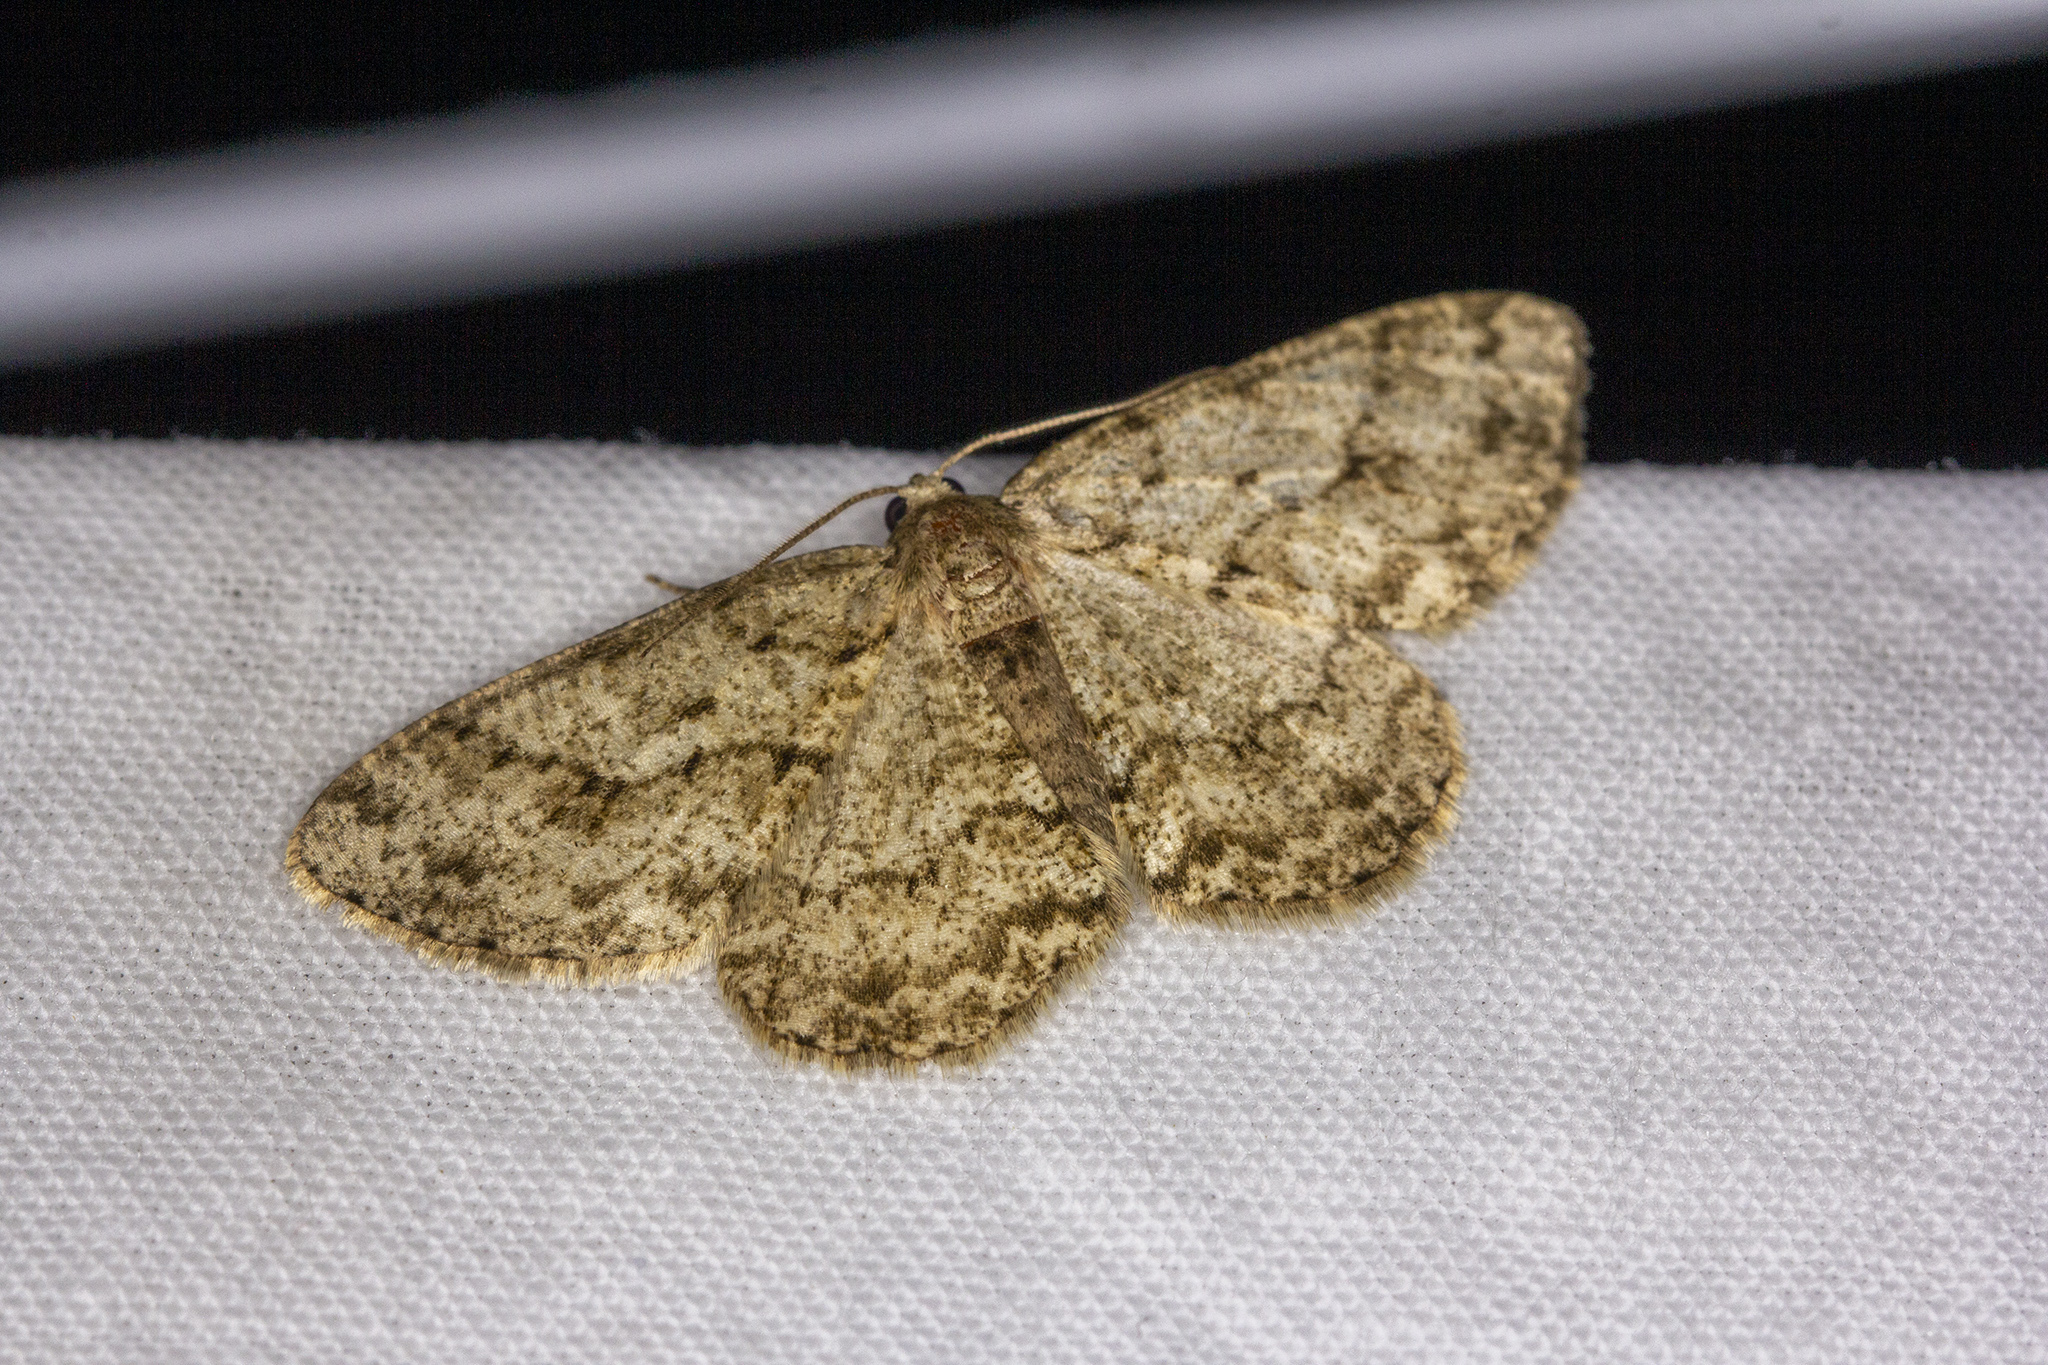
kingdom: Animalia
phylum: Arthropoda
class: Insecta
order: Lepidoptera
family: Geometridae
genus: Ectropis
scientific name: Ectropis crepuscularia
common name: Engrailed
